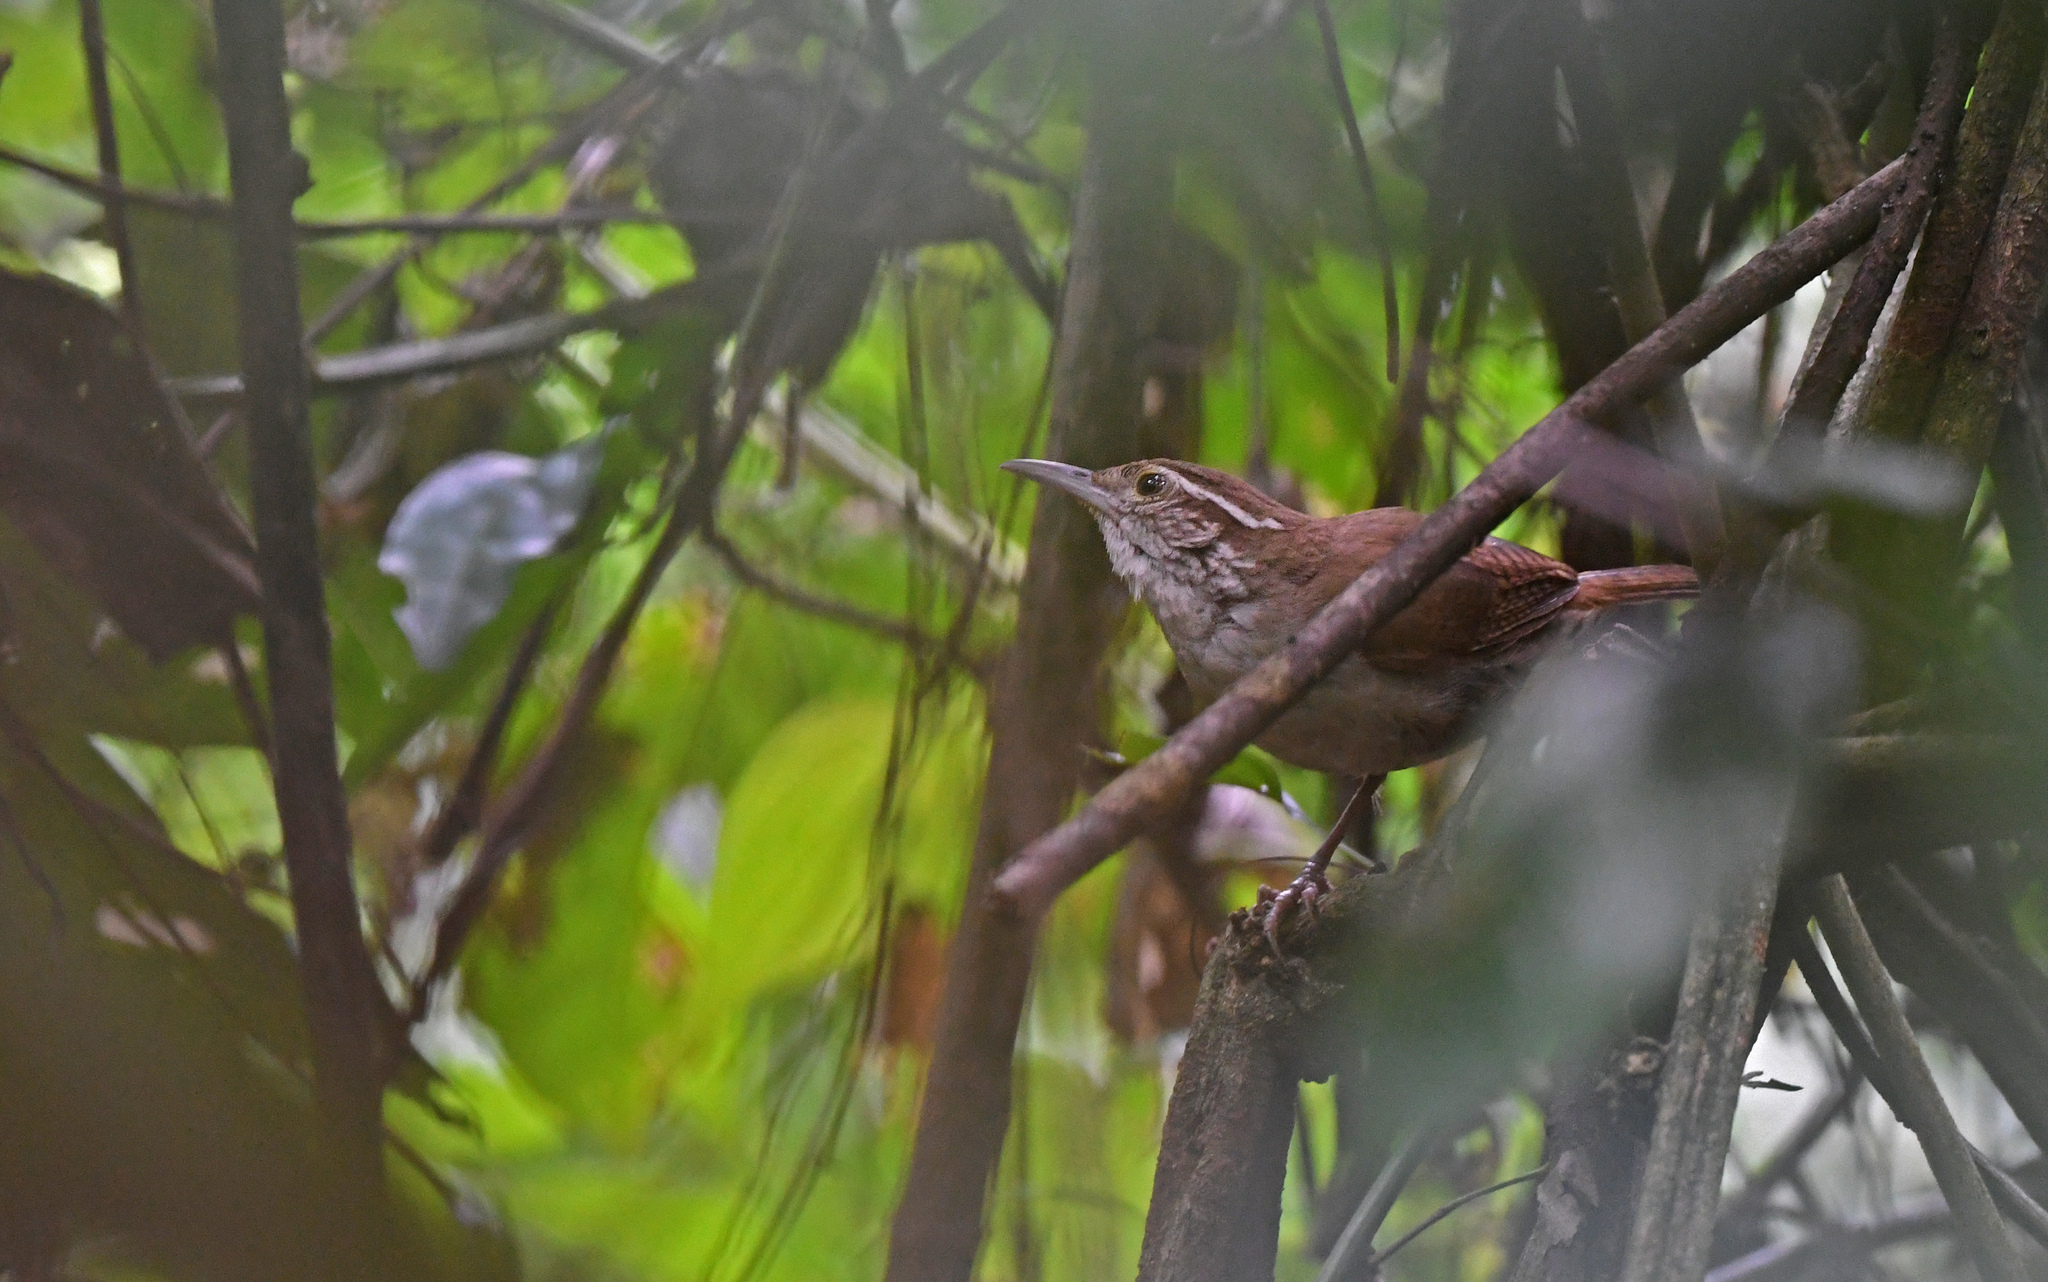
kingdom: Animalia
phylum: Chordata
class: Aves
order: Passeriformes
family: Troglodytidae
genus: Thryophilus
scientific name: Thryophilus sernai
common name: Antioquia wren
